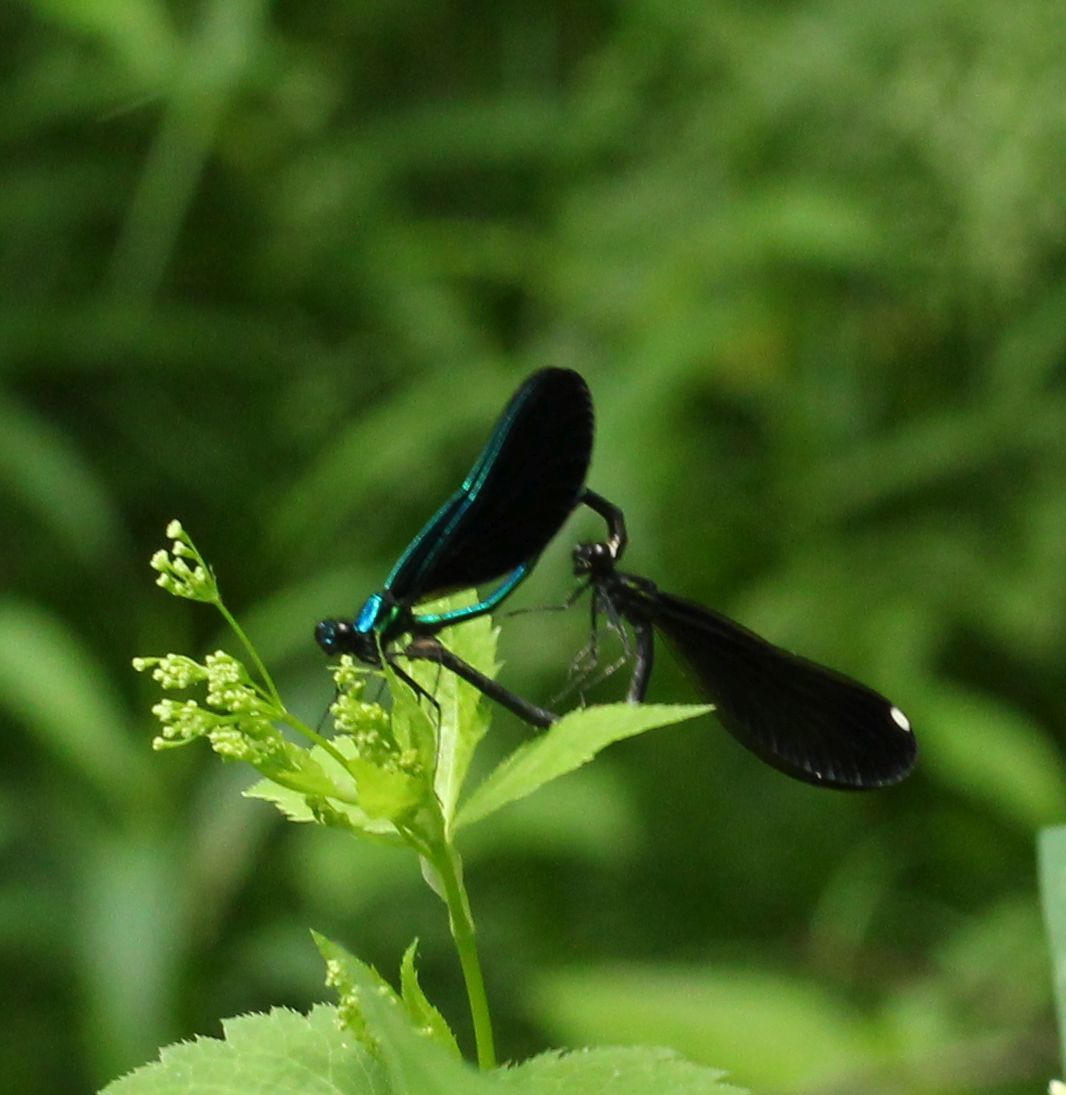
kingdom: Animalia
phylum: Arthropoda
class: Insecta
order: Odonata
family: Calopterygidae
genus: Calopteryx
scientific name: Calopteryx maculata
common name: Ebony jewelwing
